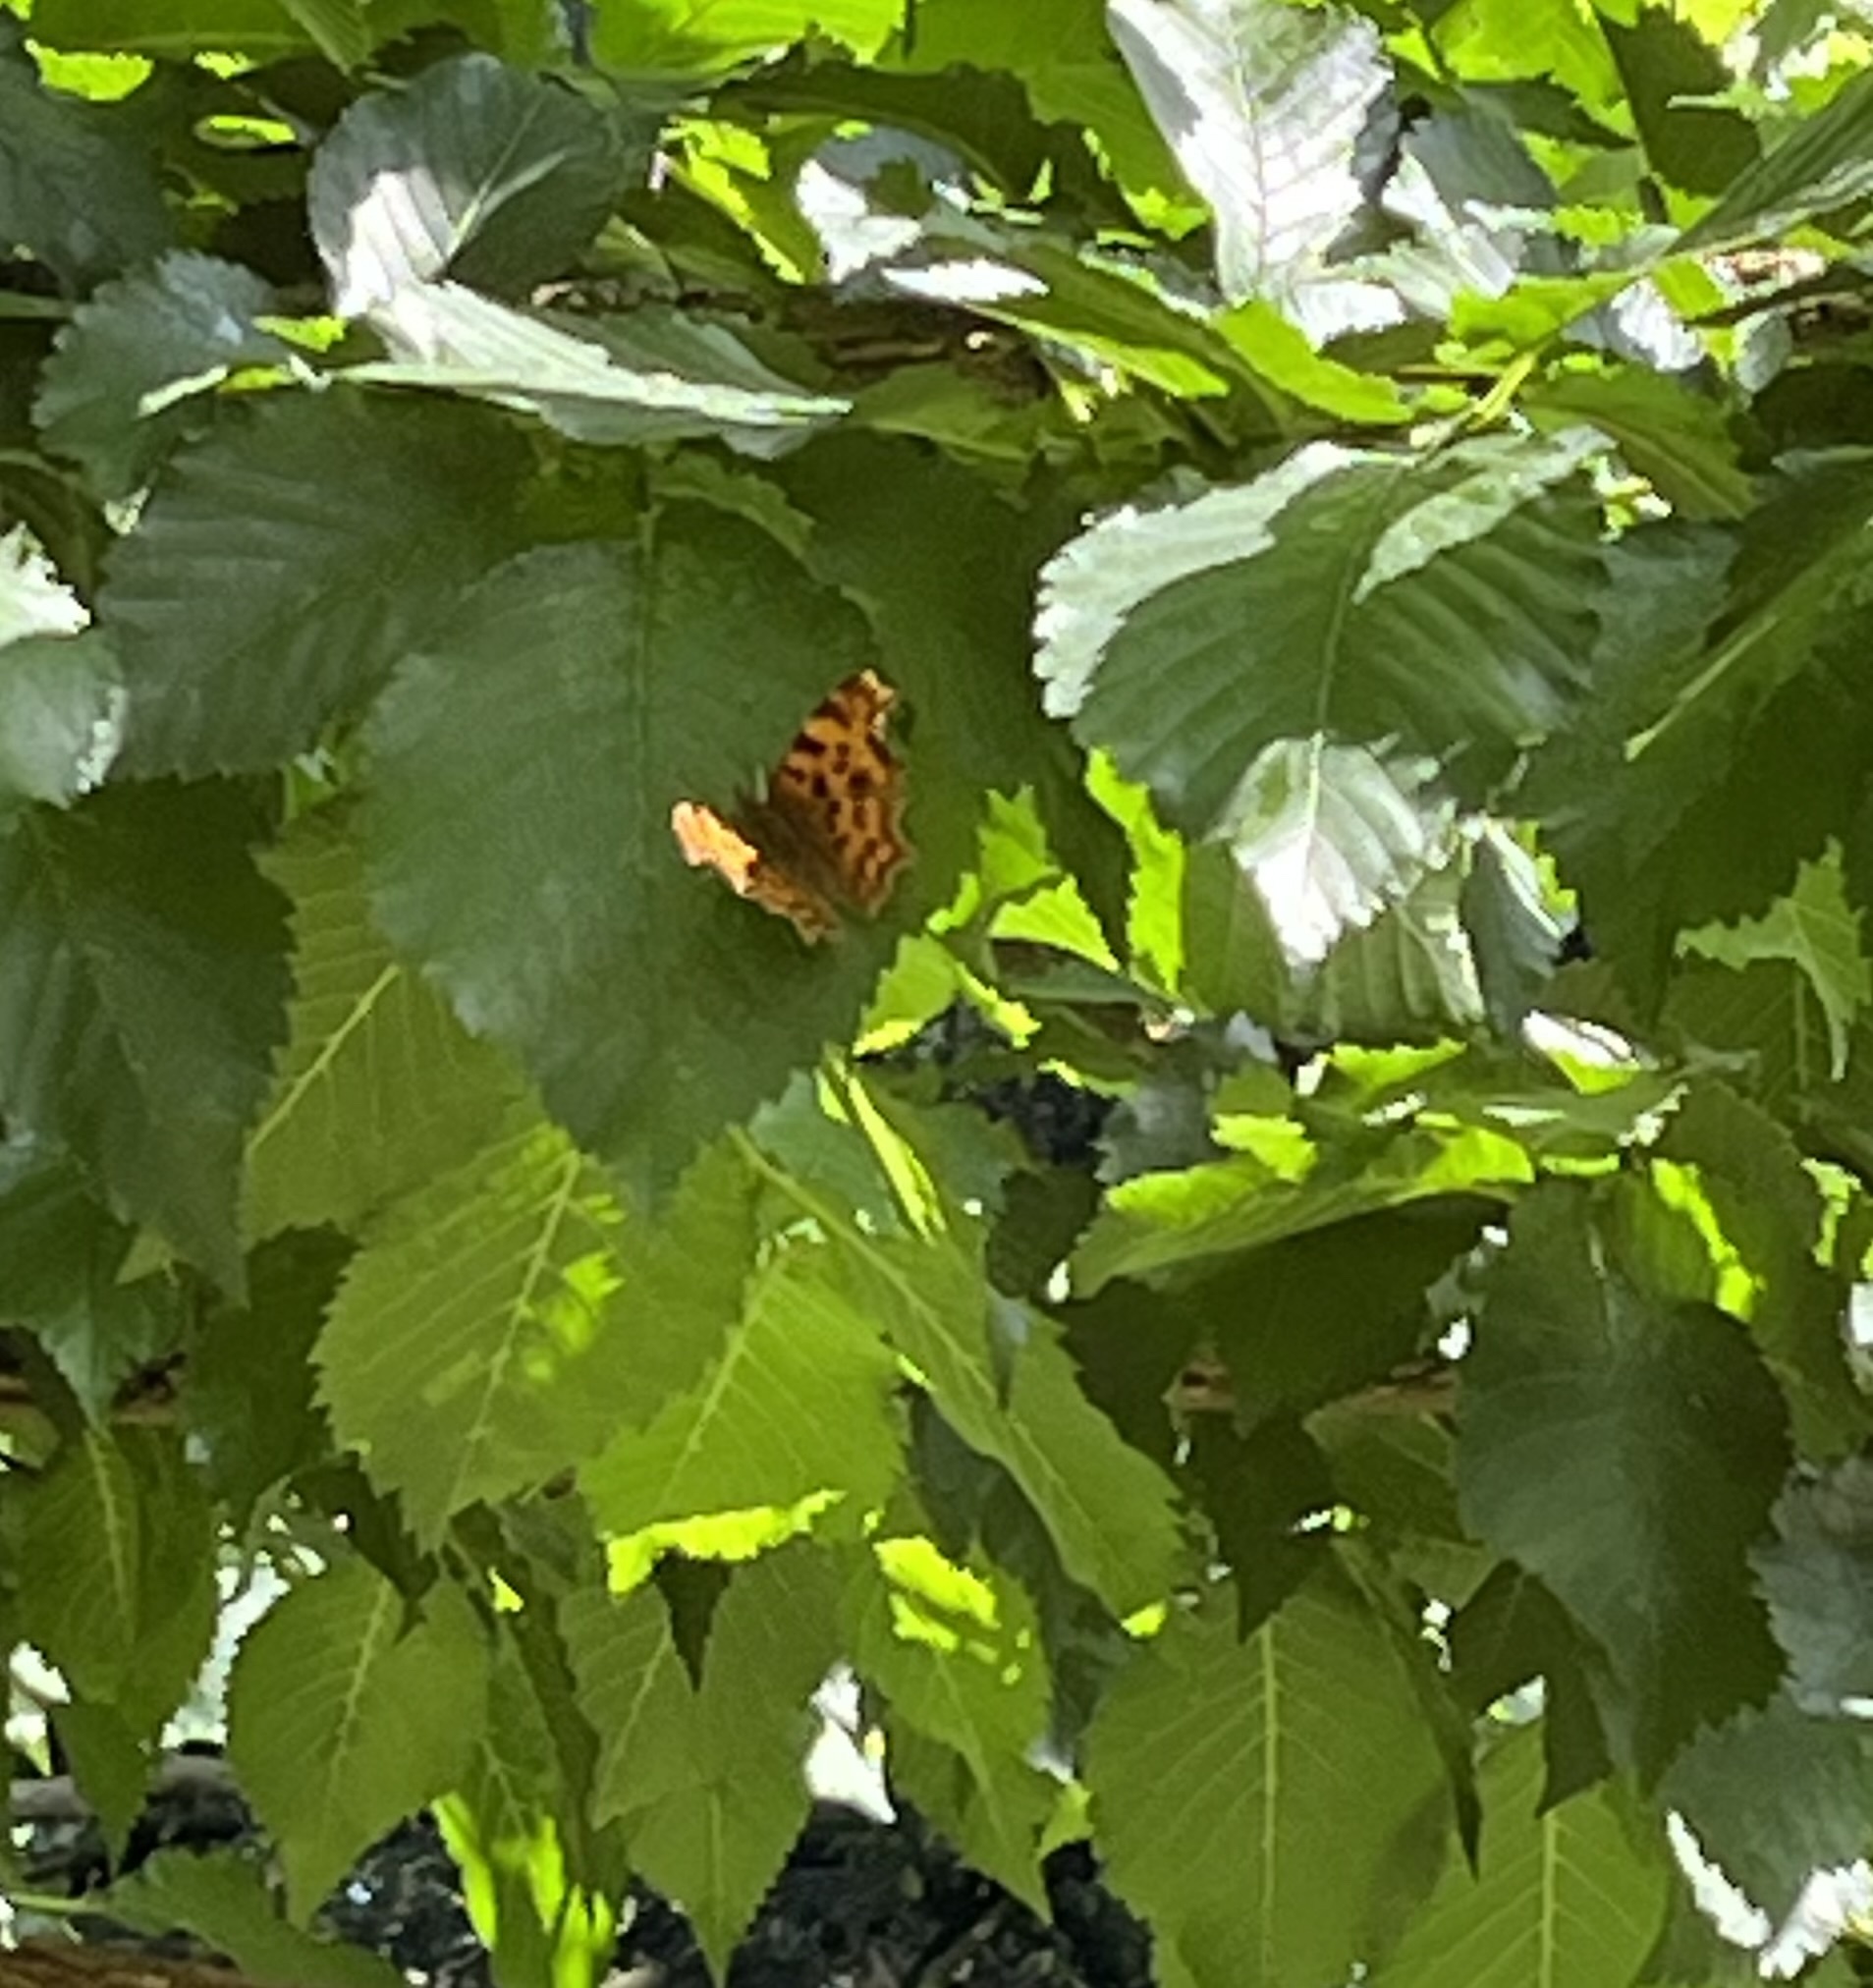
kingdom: Animalia
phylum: Arthropoda
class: Insecta
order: Lepidoptera
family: Nymphalidae
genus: Polygonia
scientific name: Polygonia c-album
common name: Comma
